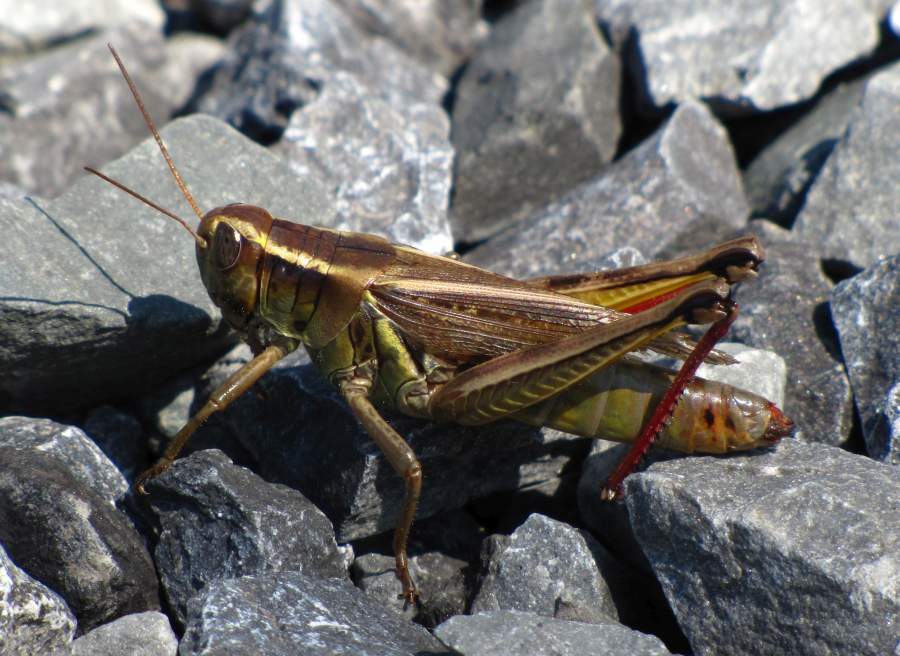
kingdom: Animalia
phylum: Arthropoda
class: Insecta
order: Orthoptera
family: Acrididae
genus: Melanoplus
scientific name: Melanoplus bivittatus
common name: Two-striped grasshopper
